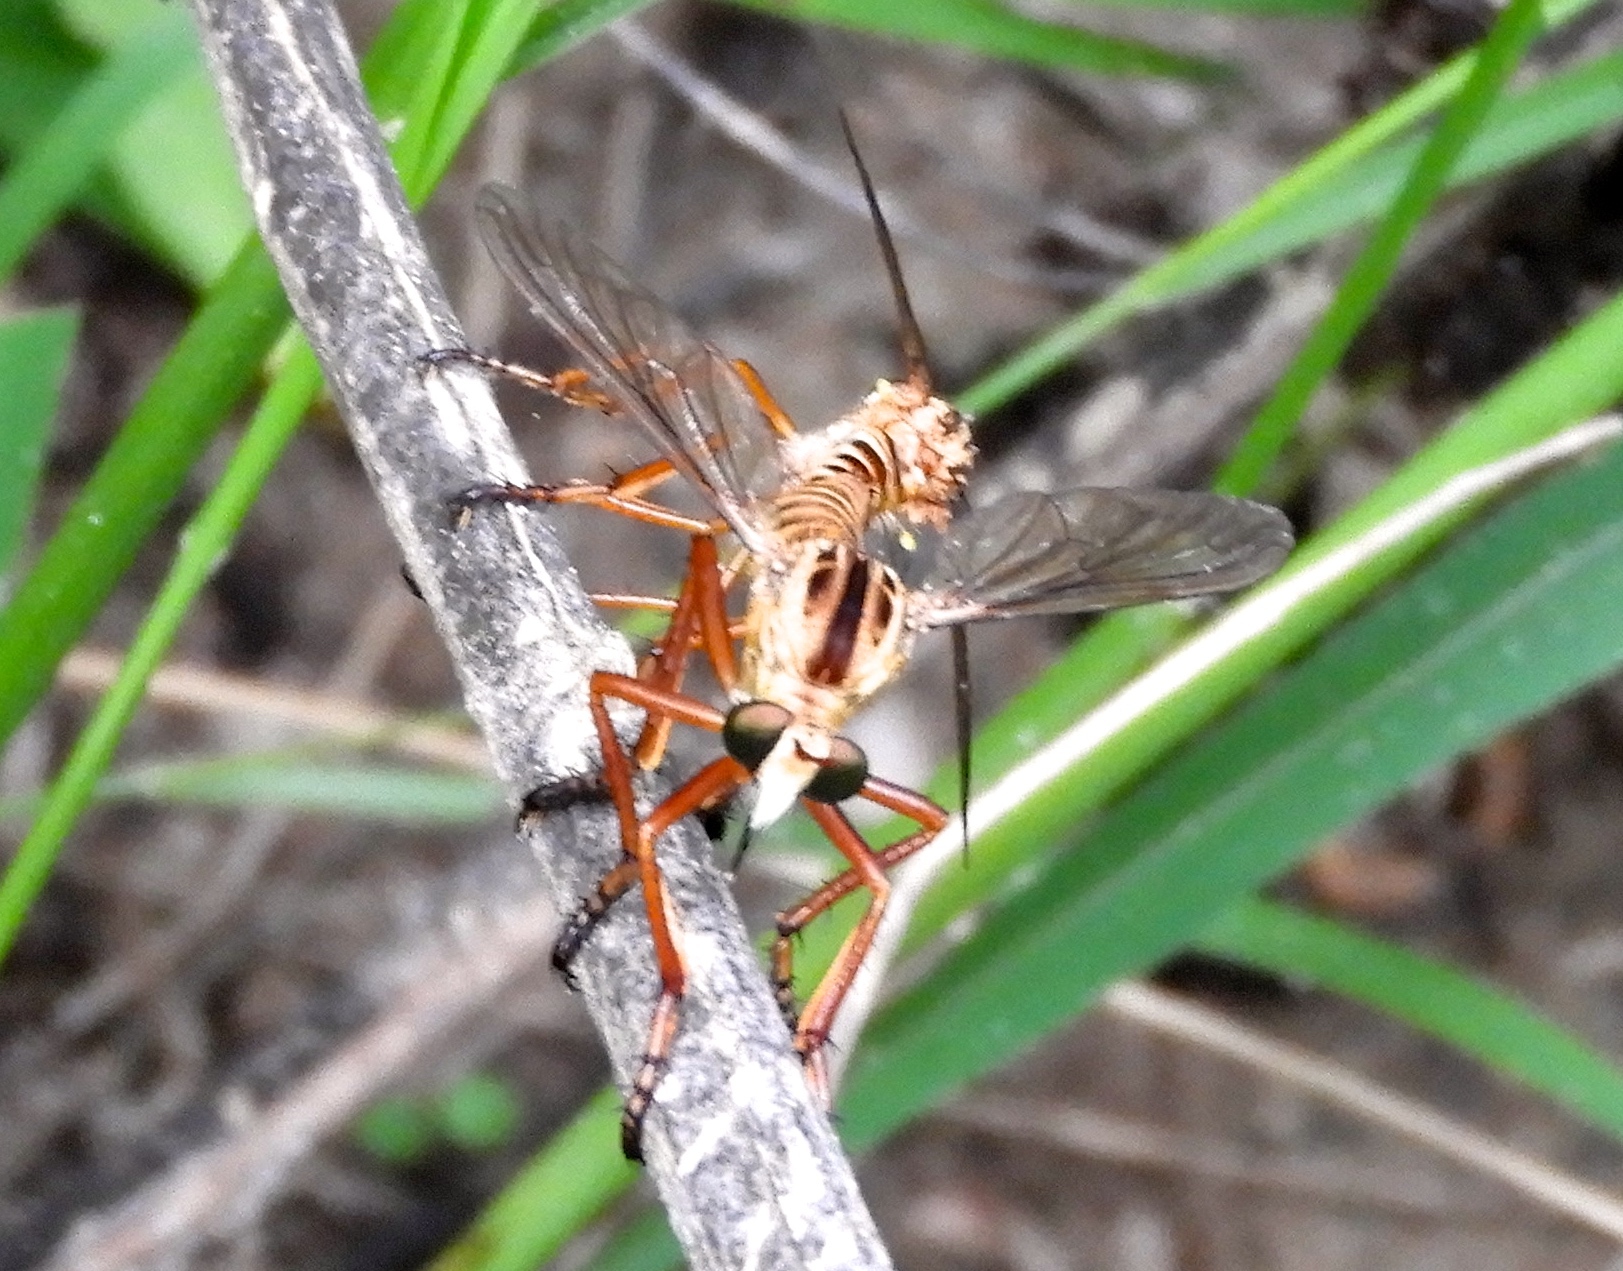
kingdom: Animalia
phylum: Arthropoda
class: Insecta
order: Diptera
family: Asilidae
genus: Diogmites
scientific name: Diogmites
